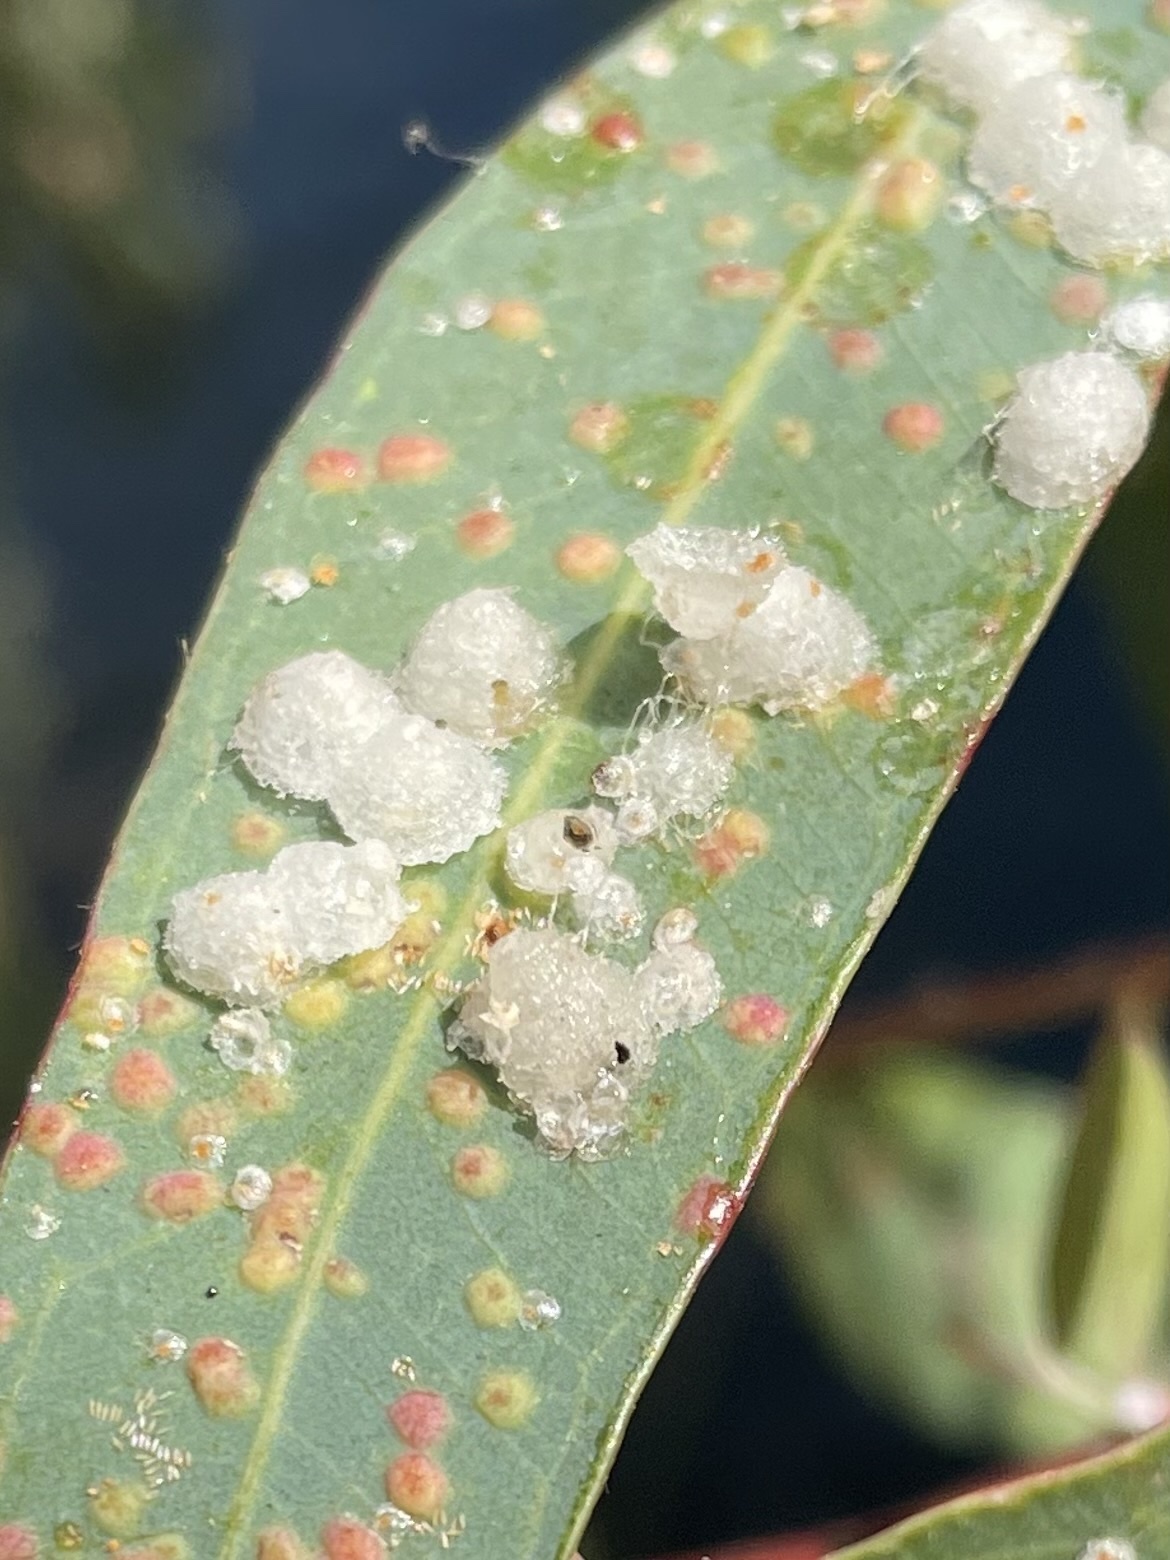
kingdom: Animalia
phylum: Arthropoda
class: Insecta
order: Hemiptera
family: Aphalaridae
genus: Glycaspis
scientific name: Glycaspis brimblecombei
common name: Red gum lerp psyllid
